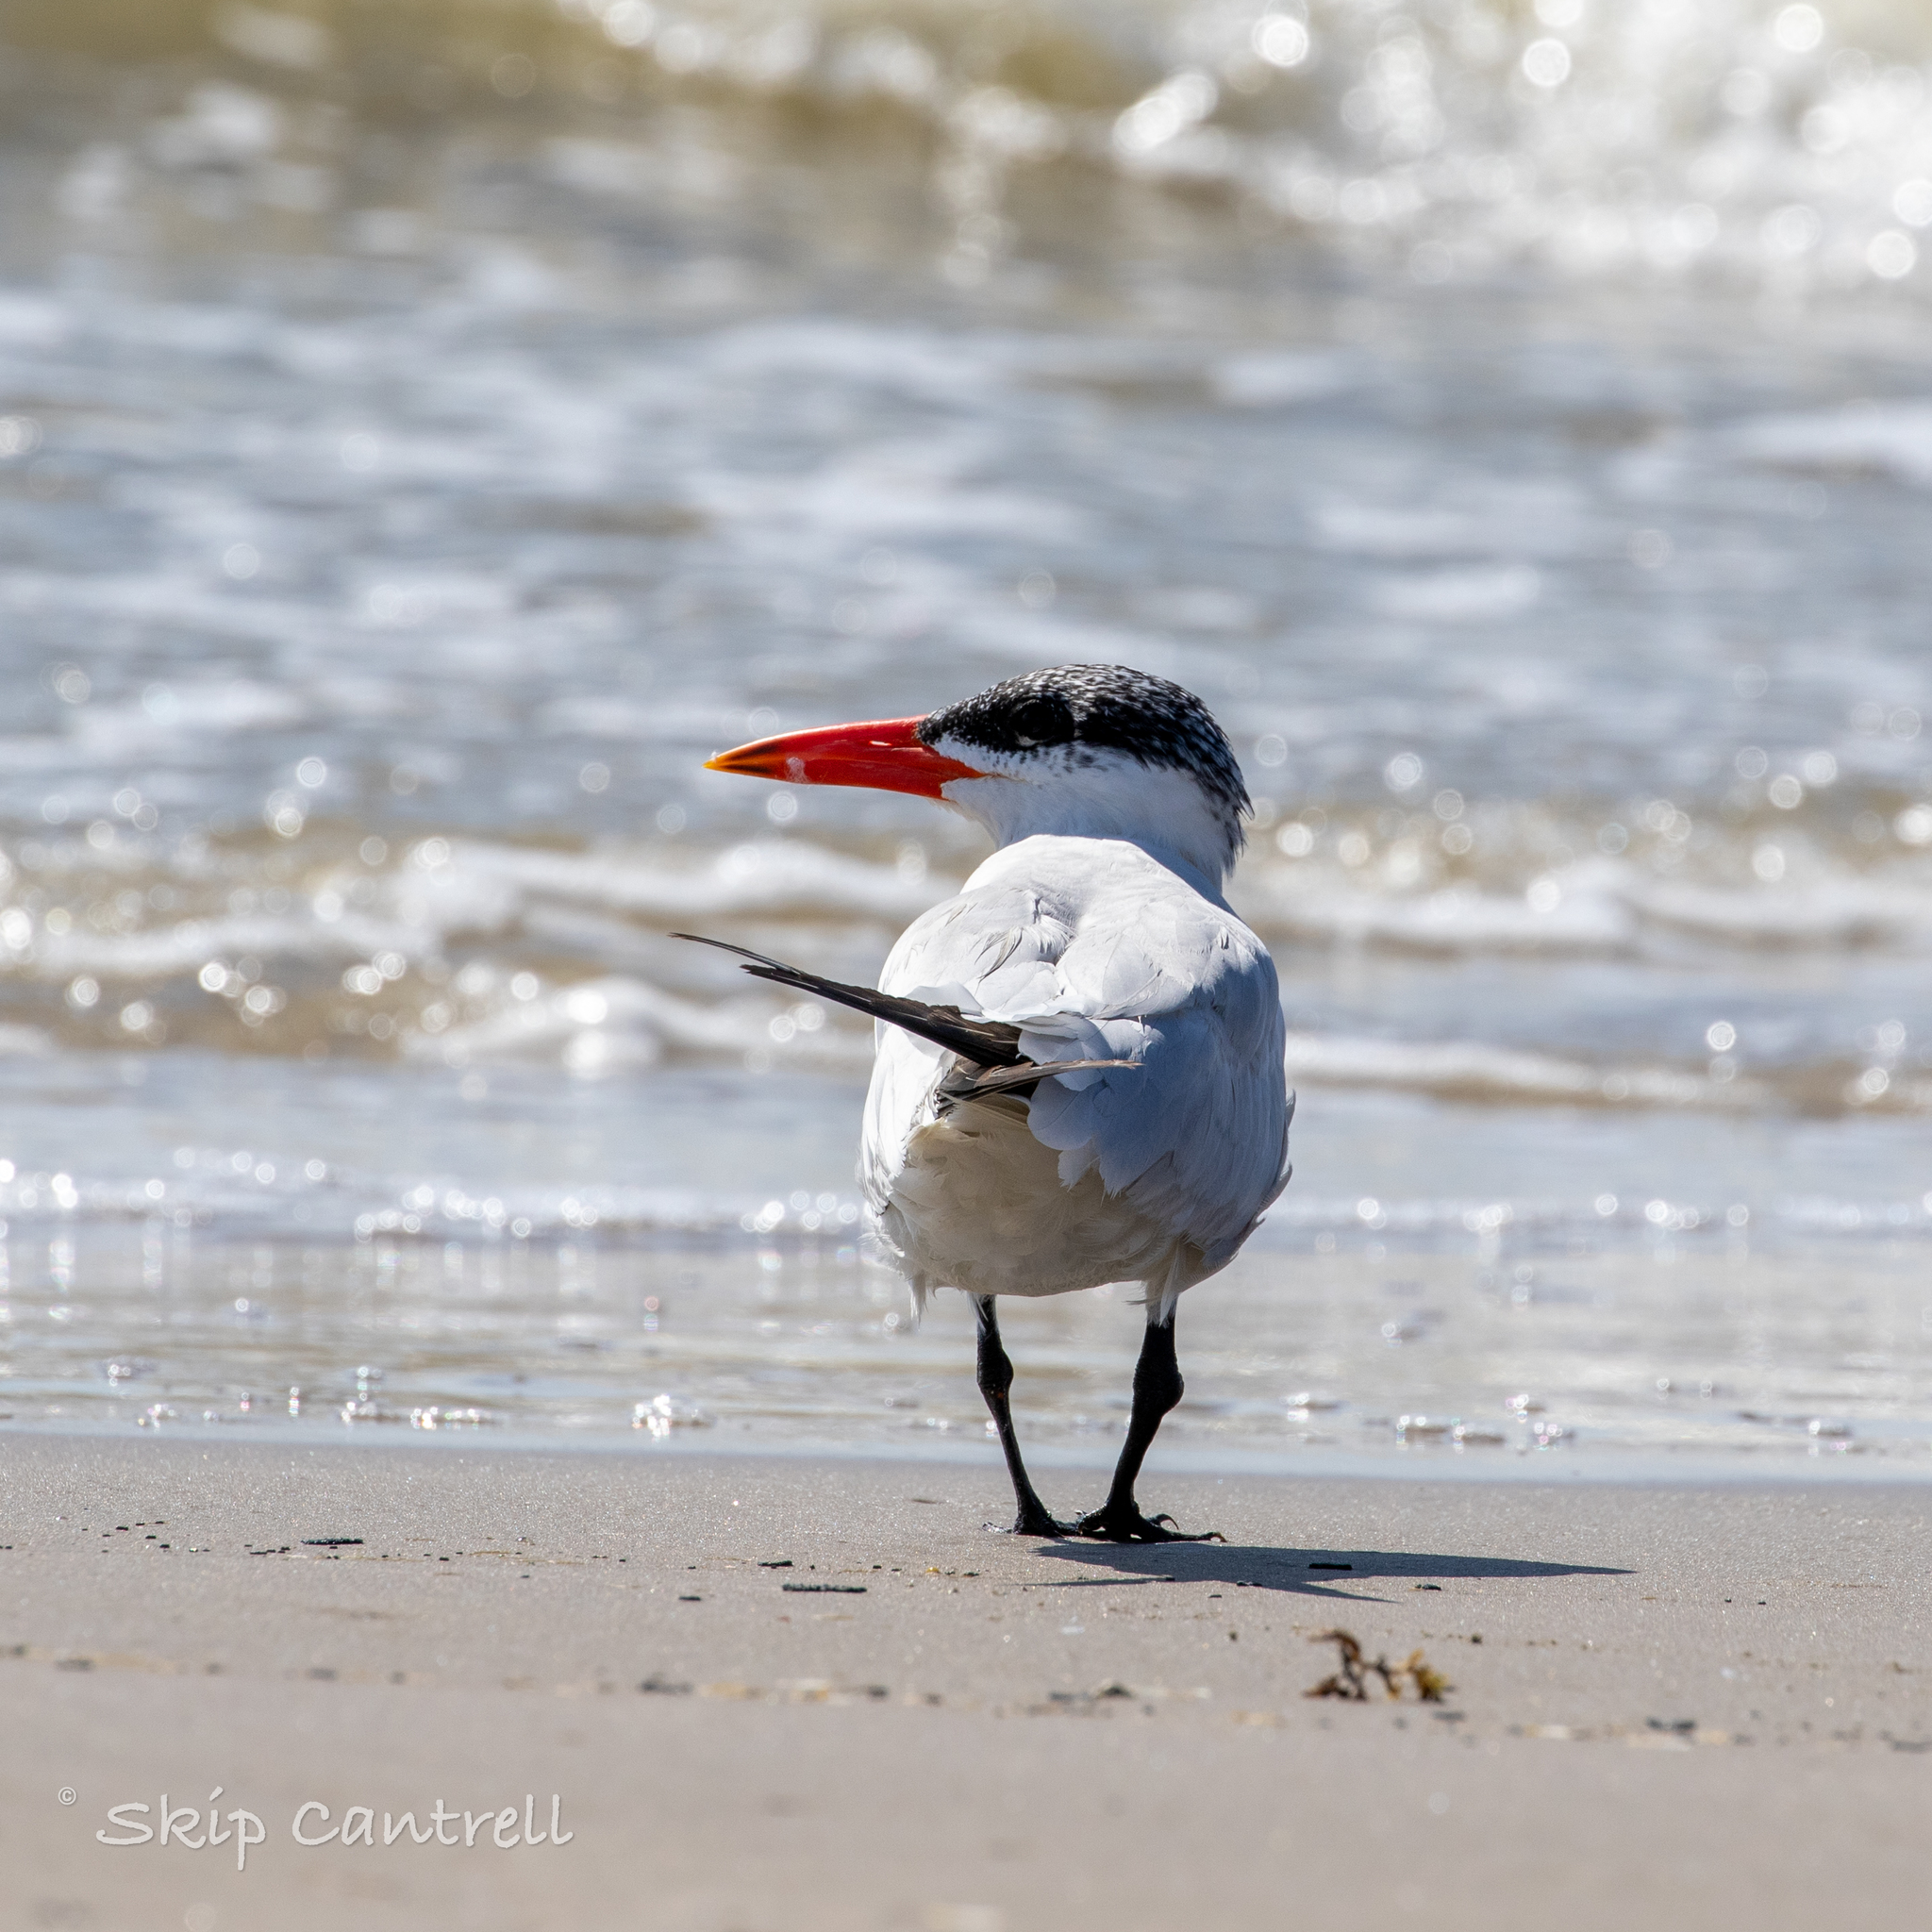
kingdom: Animalia
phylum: Chordata
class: Aves
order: Charadriiformes
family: Laridae
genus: Hydroprogne
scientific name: Hydroprogne caspia
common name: Caspian tern
